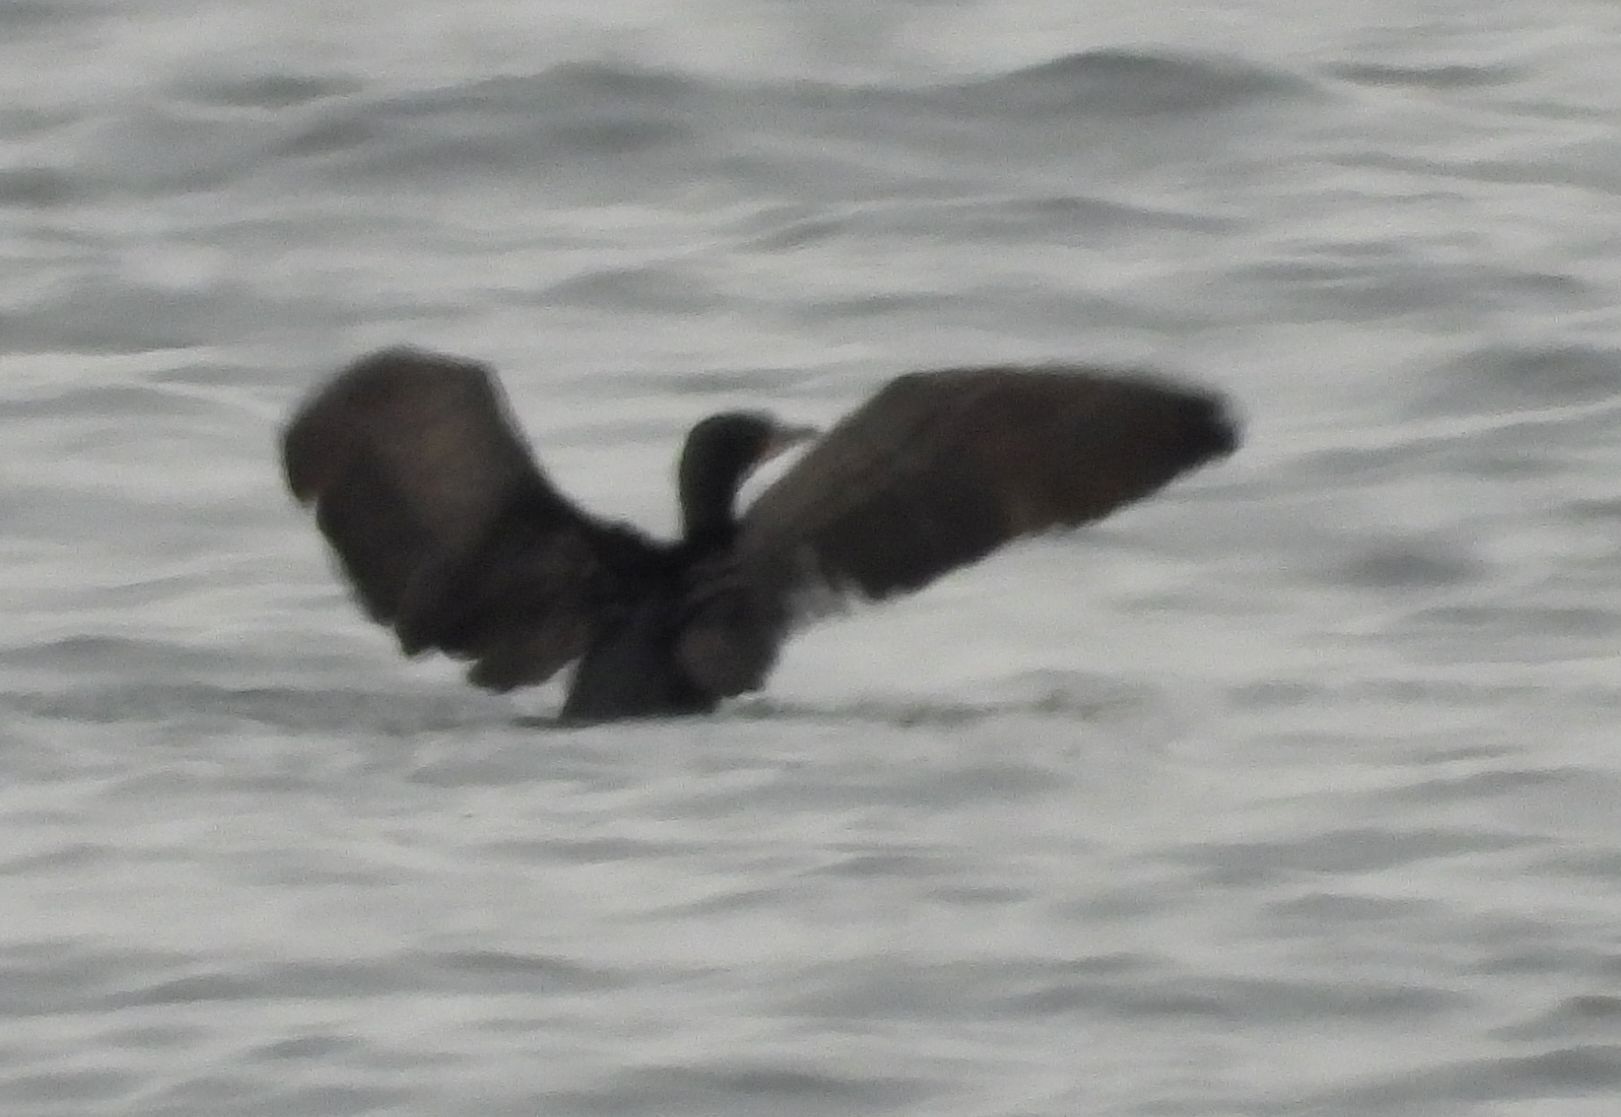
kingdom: Animalia
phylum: Chordata
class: Aves
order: Suliformes
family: Phalacrocoracidae
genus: Phalacrocorax
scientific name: Phalacrocorax auritus
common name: Double-crested cormorant
